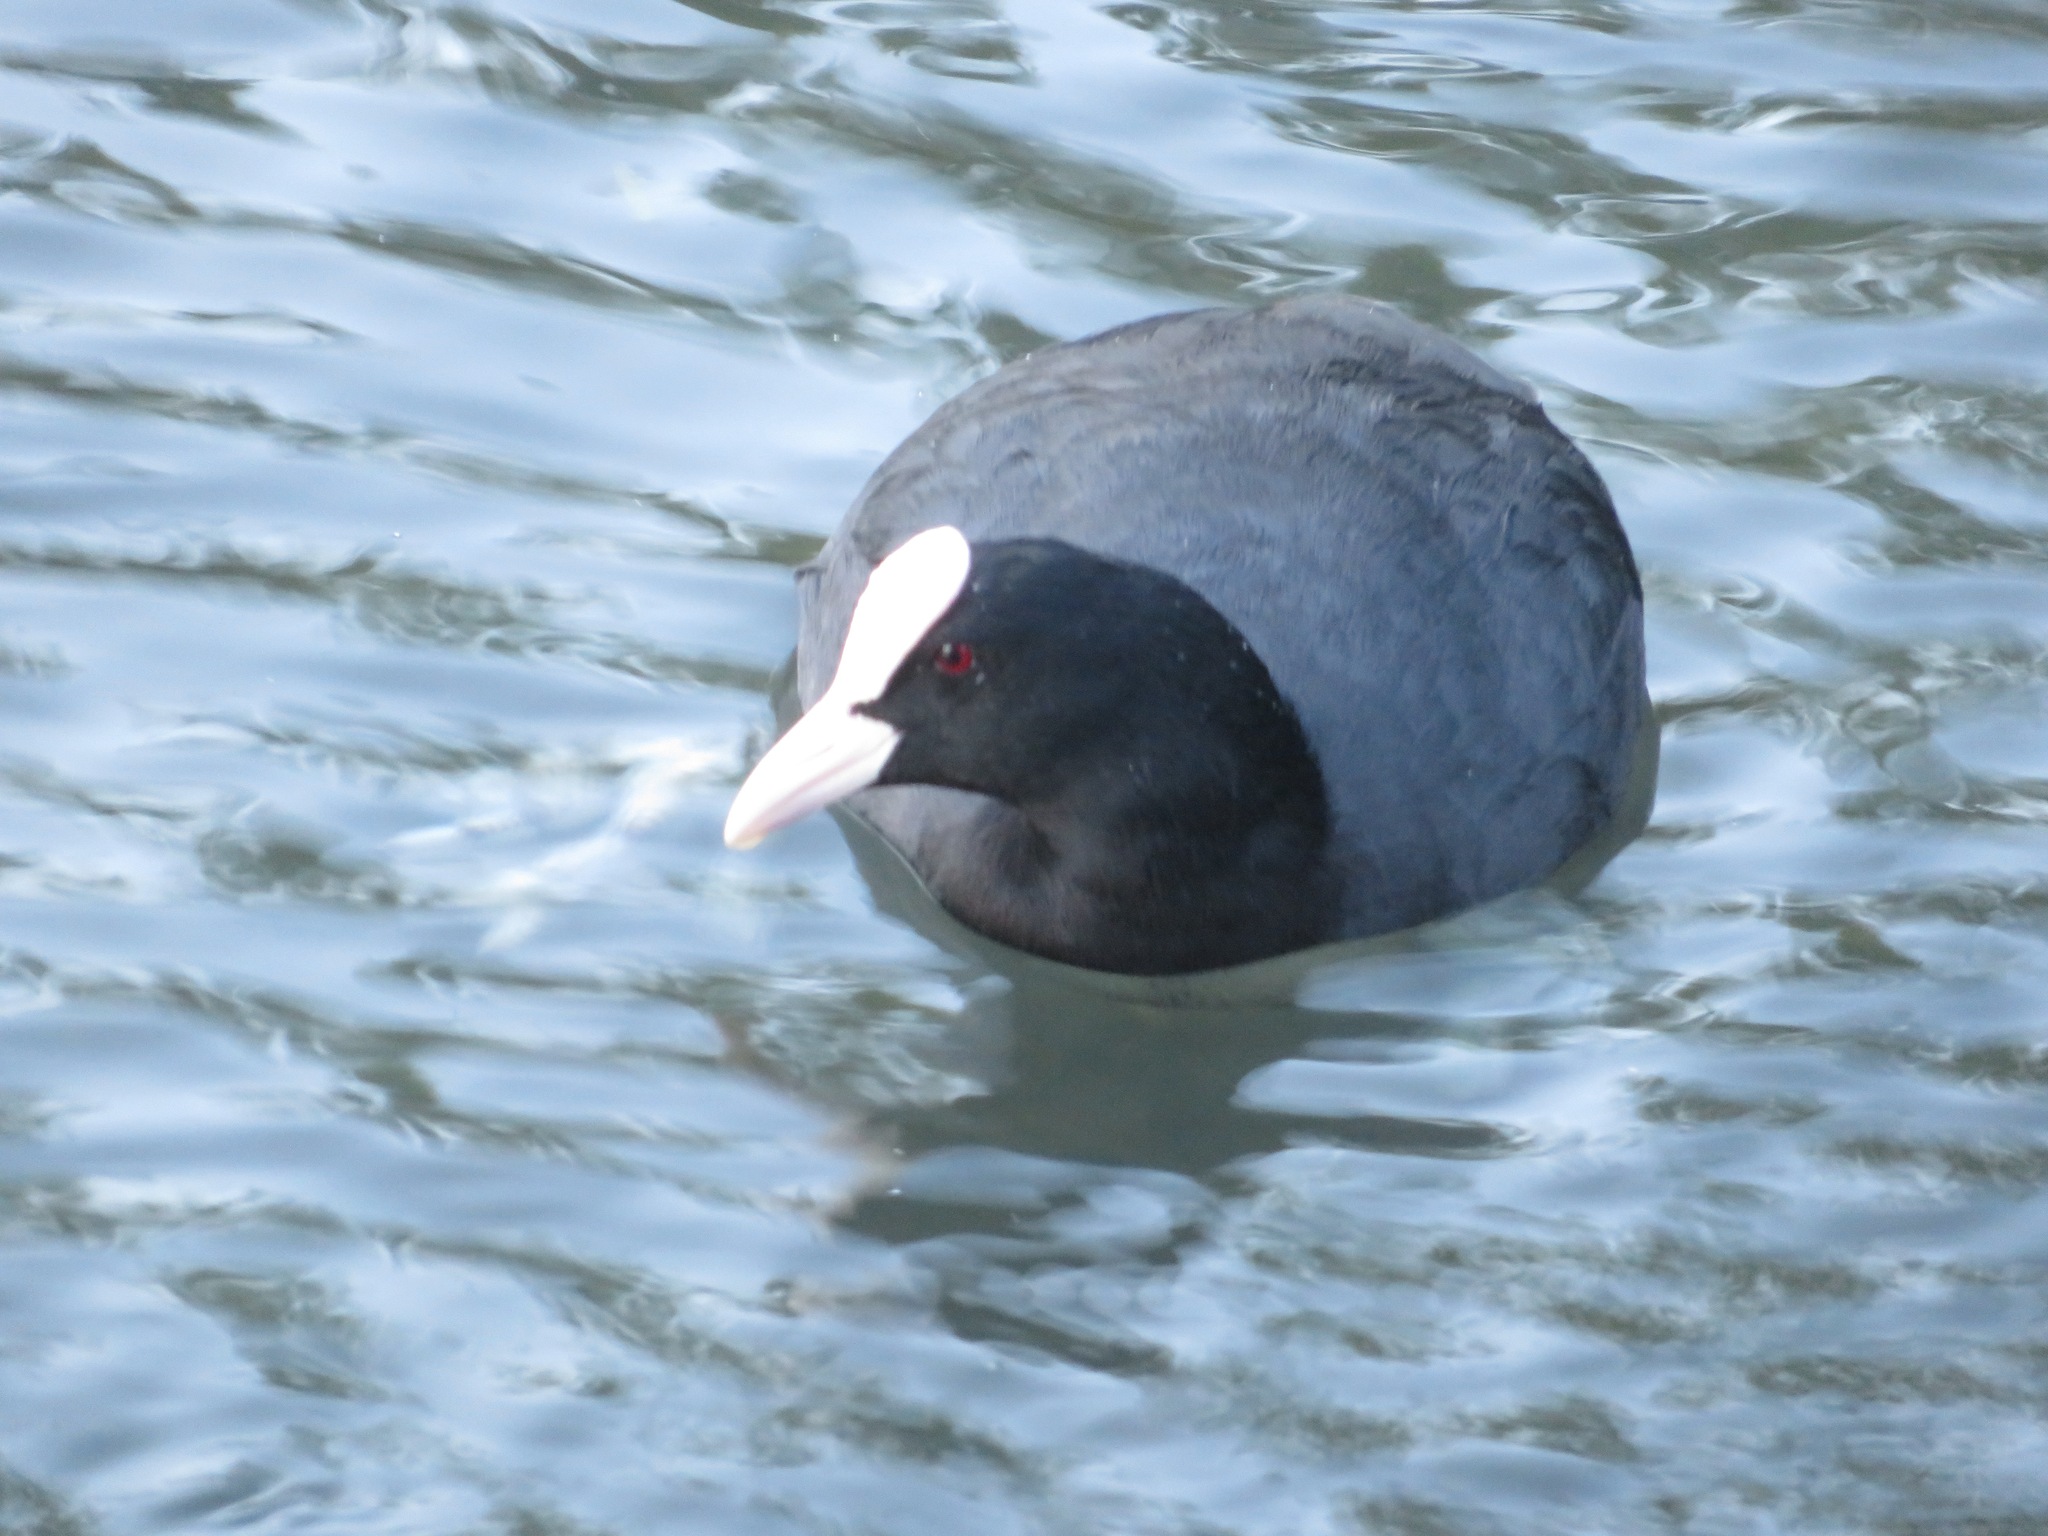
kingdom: Animalia
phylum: Chordata
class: Aves
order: Gruiformes
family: Rallidae
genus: Fulica
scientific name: Fulica atra
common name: Eurasian coot
